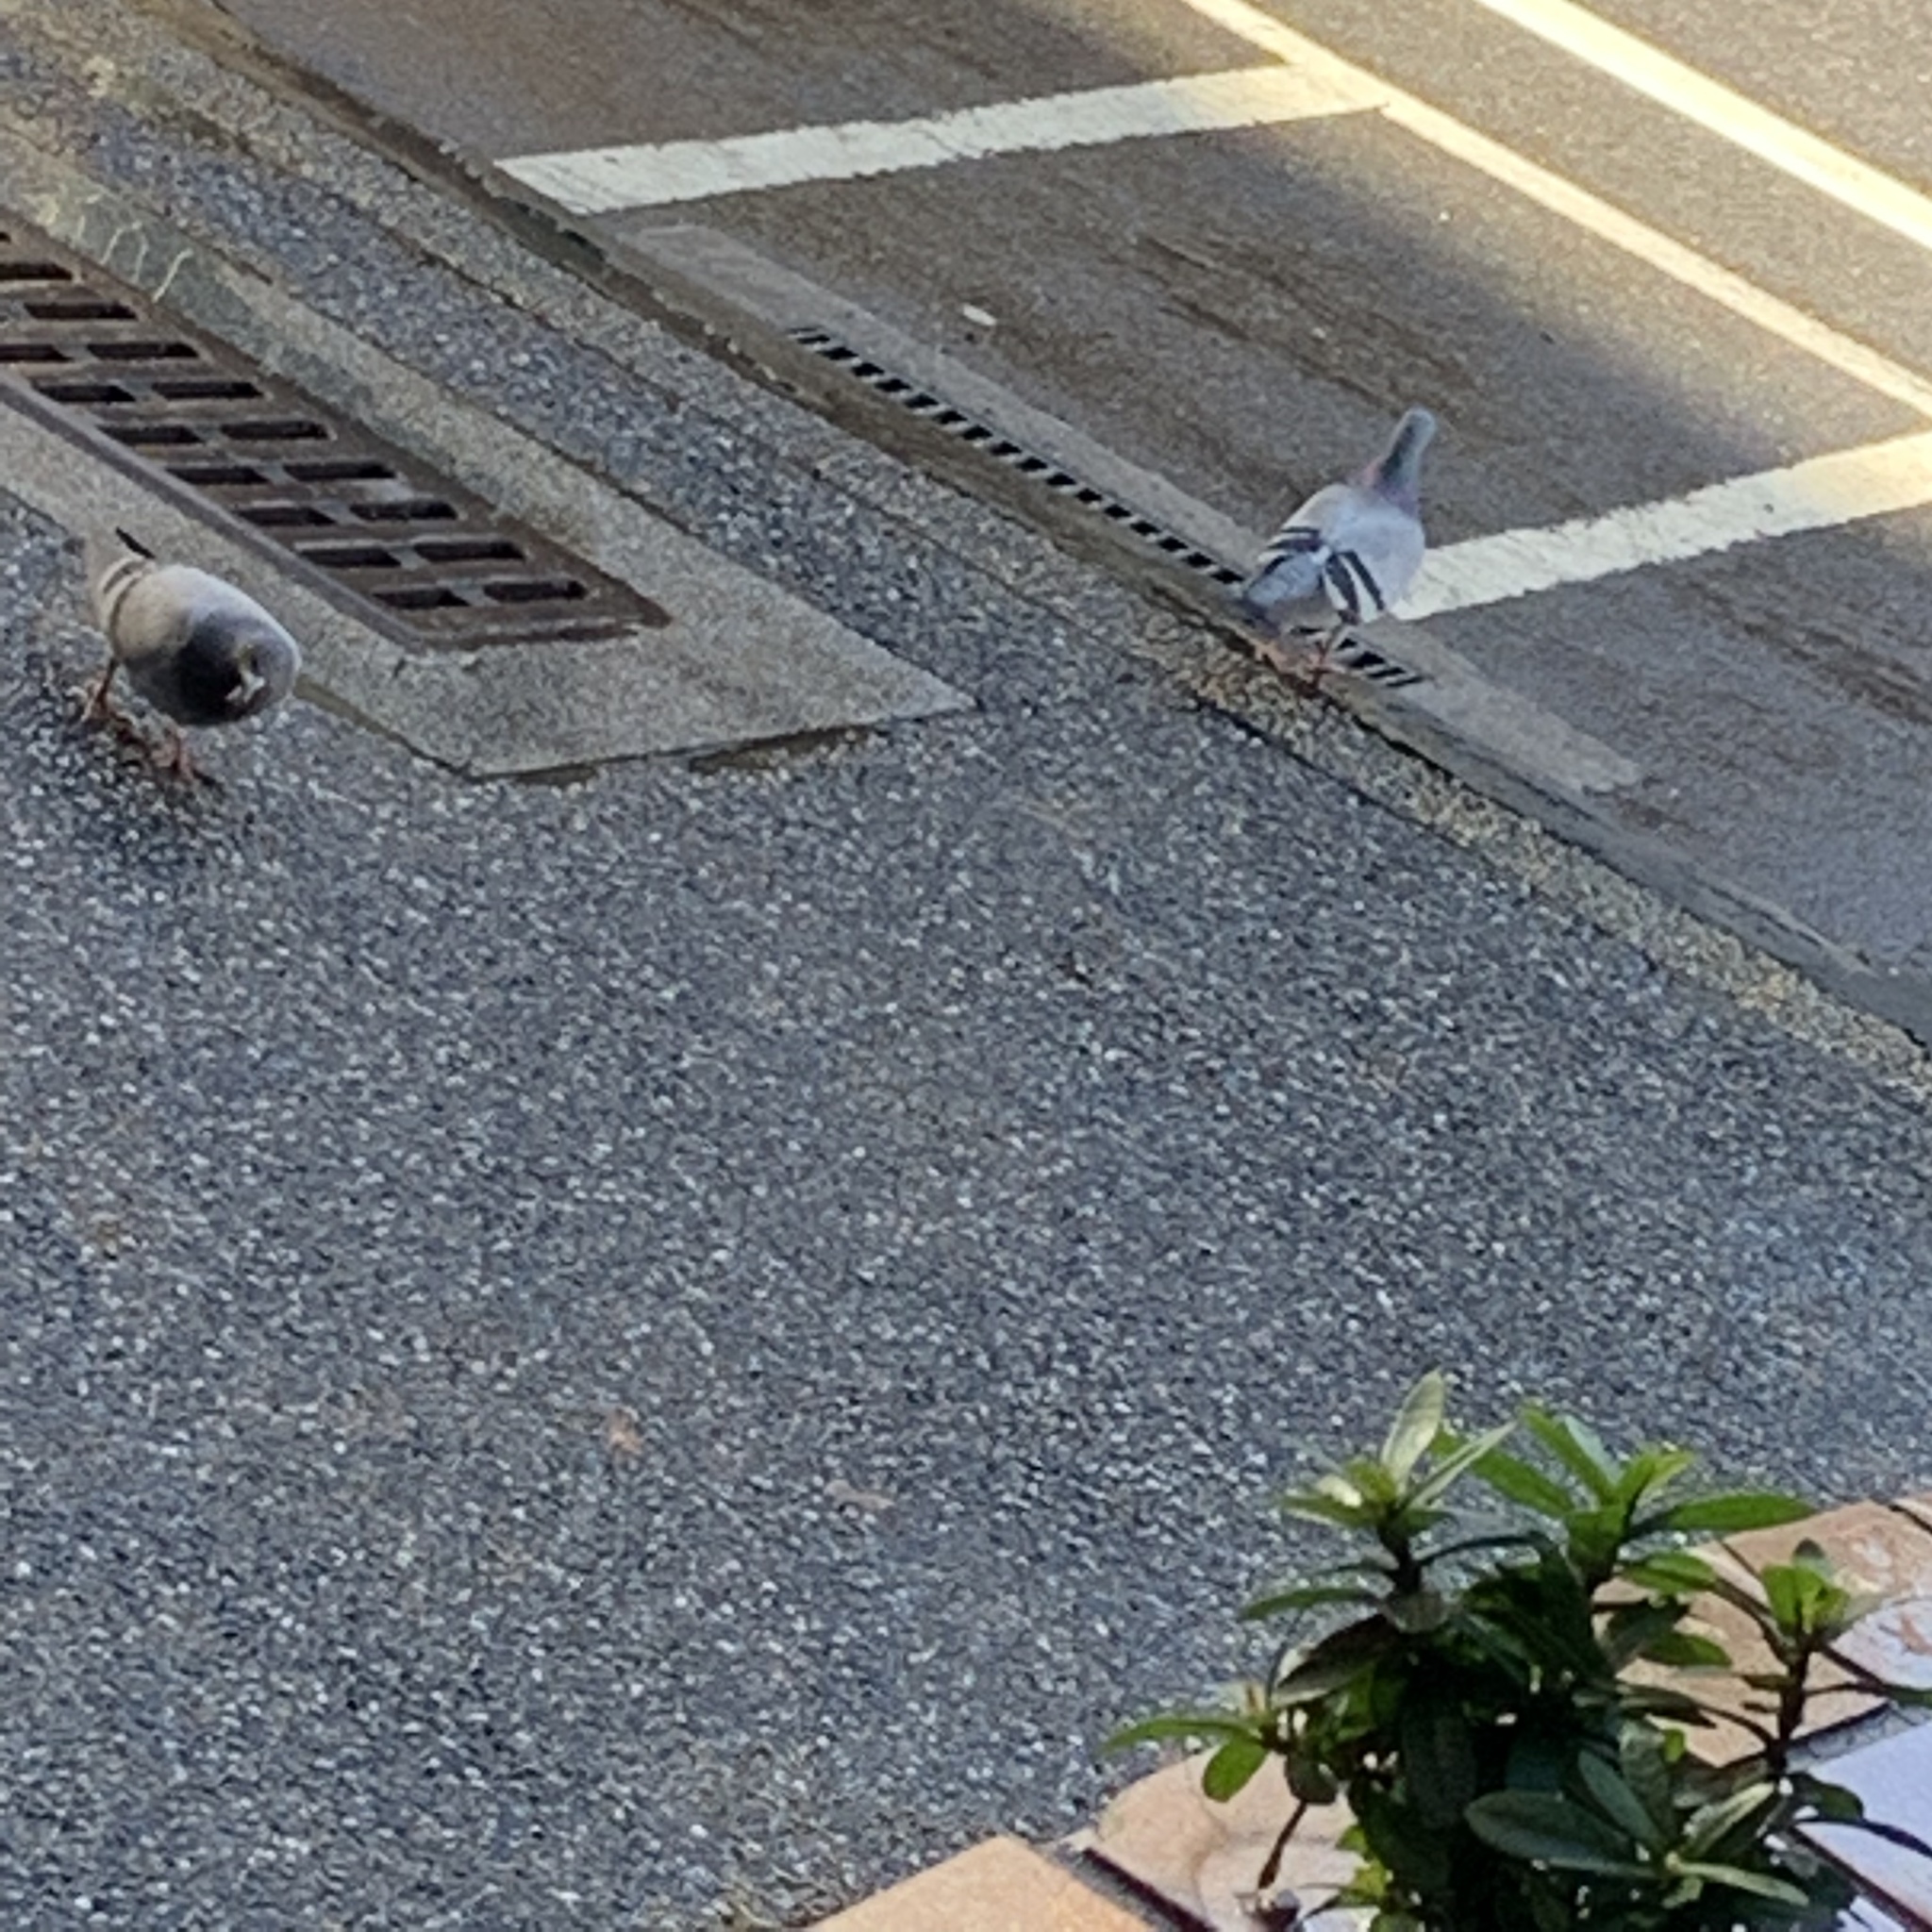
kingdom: Animalia
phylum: Chordata
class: Aves
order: Columbiformes
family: Columbidae
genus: Columba
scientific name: Columba livia
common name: Rock pigeon
